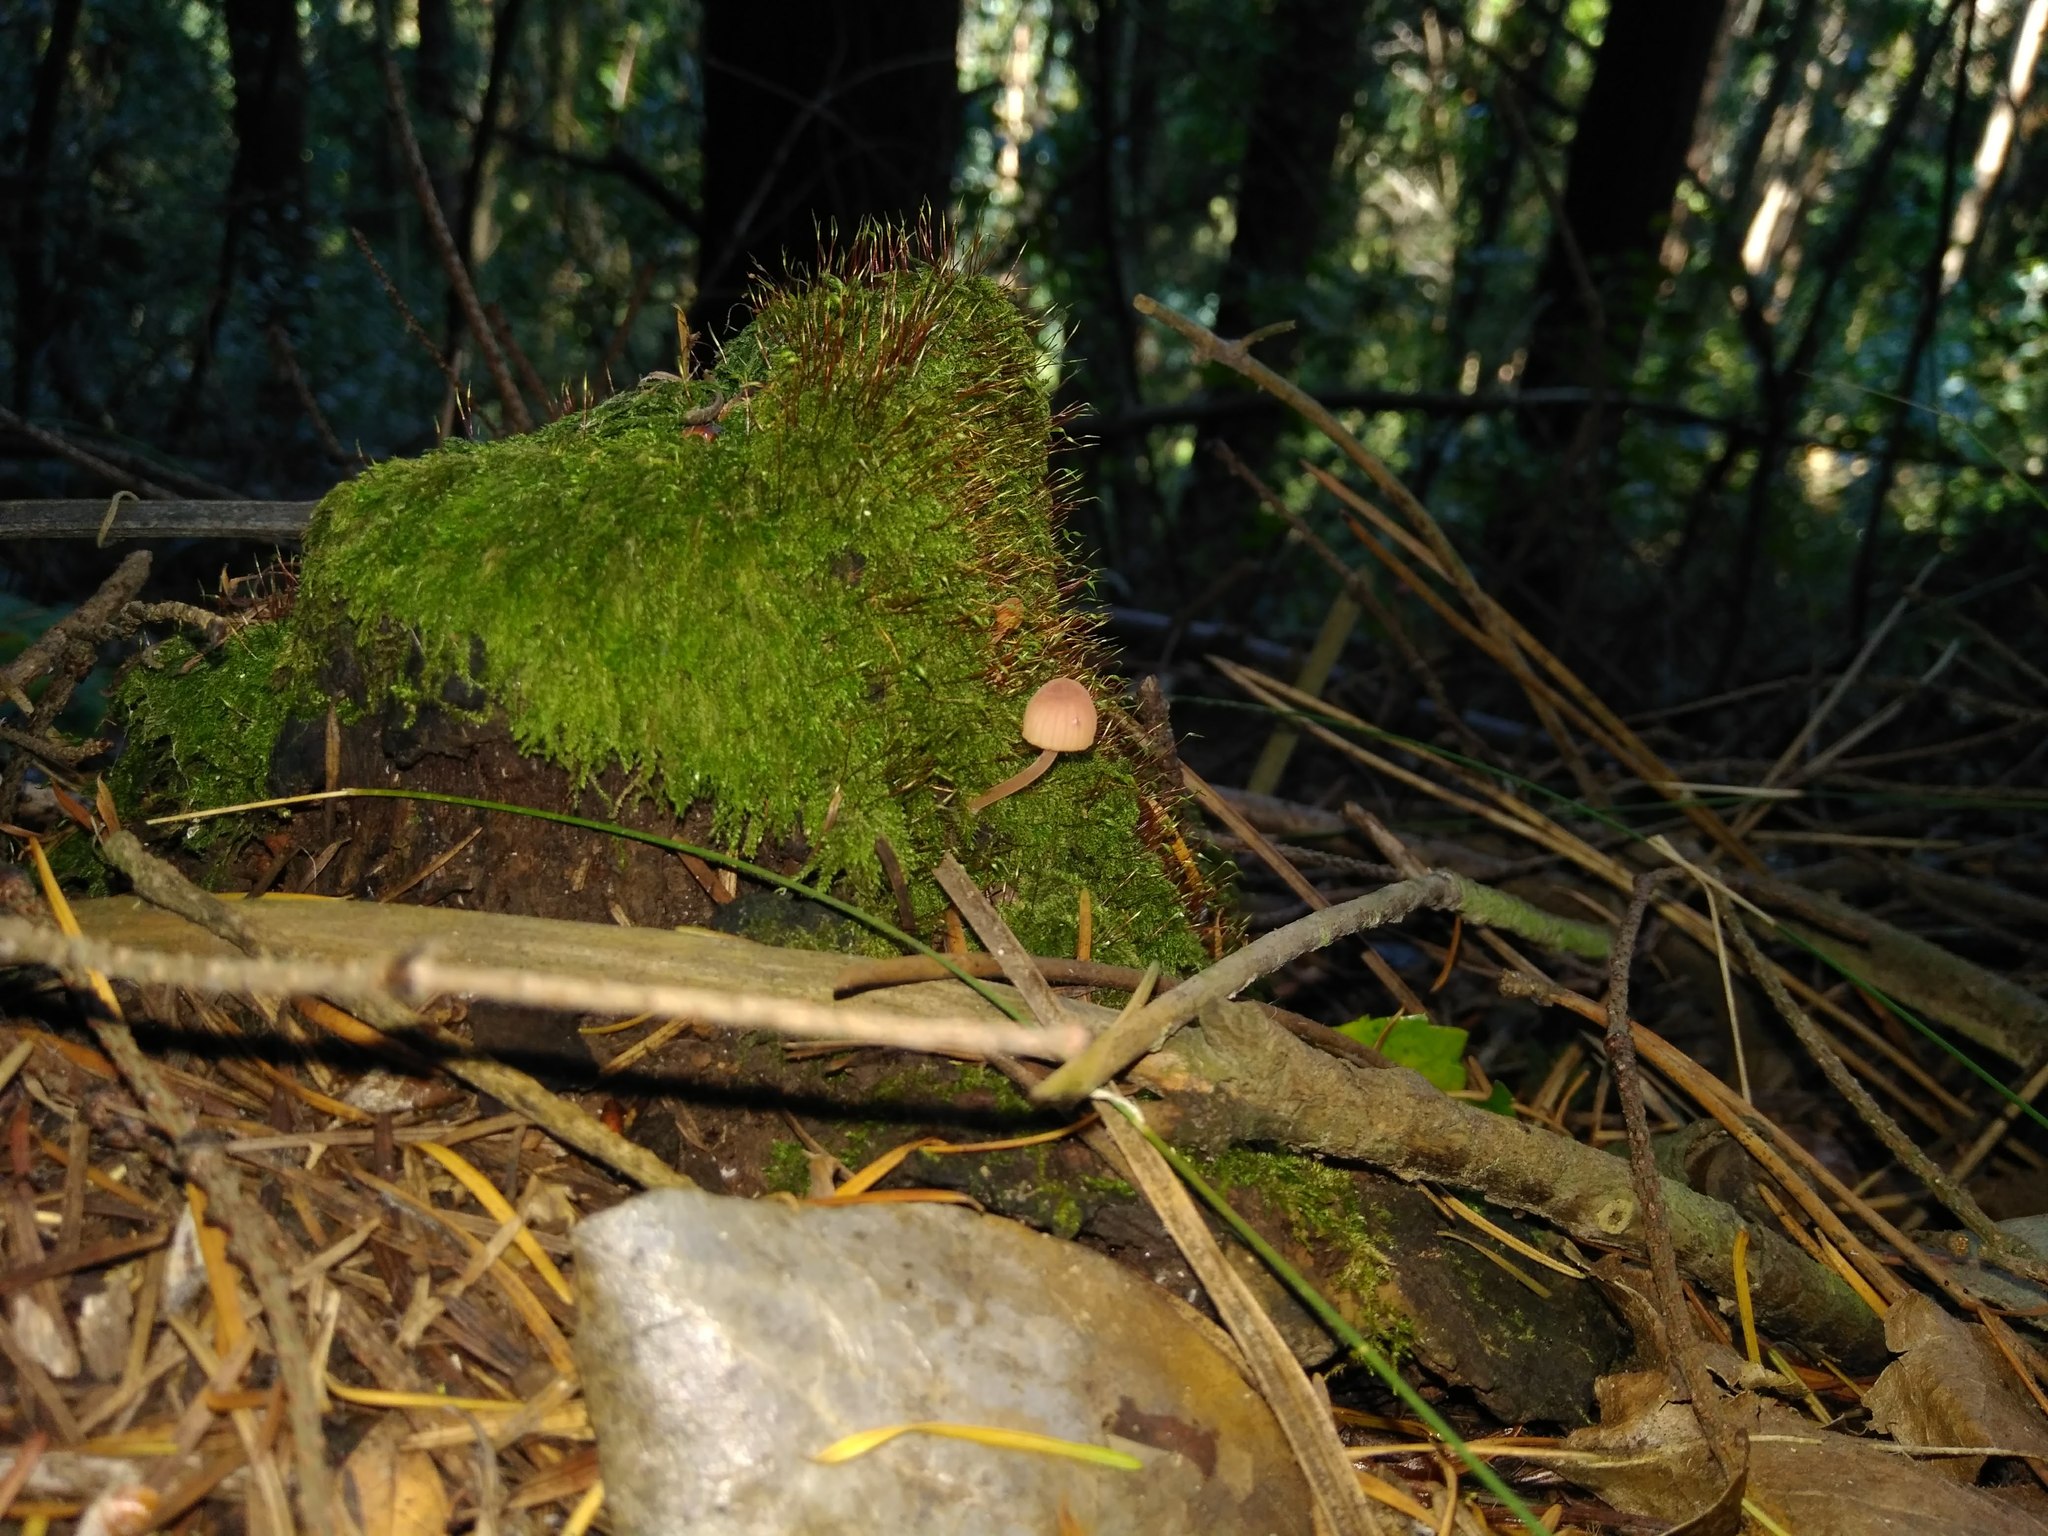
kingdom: Fungi
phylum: Basidiomycota
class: Agaricomycetes
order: Agaricales
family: Mycenaceae
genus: Mycena
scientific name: Mycena haematopus
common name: Burgundydrop bonnet
